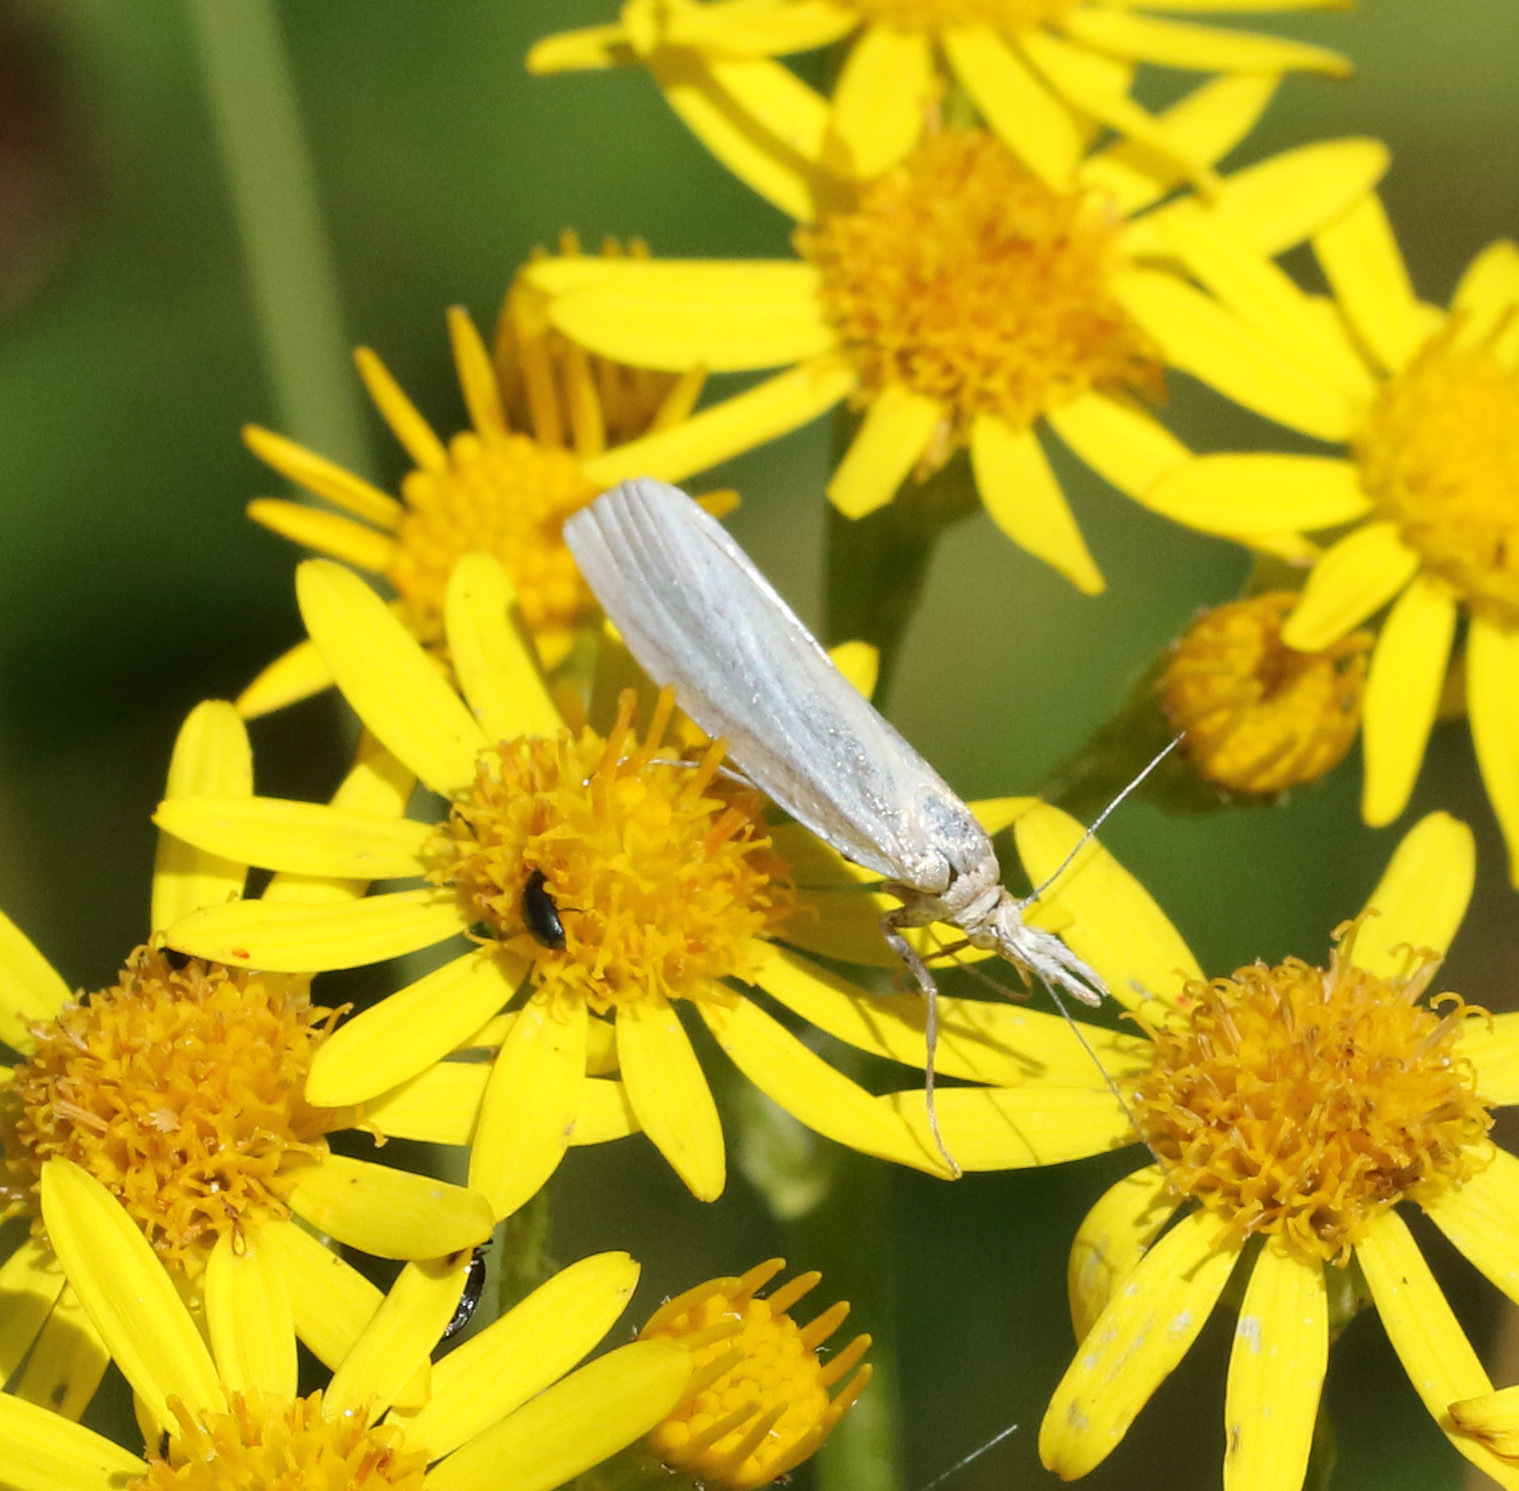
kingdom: Animalia
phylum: Arthropoda
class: Insecta
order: Lepidoptera
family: Crambidae
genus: Crambus
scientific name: Crambus perlellus
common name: Yellow satin veneer
